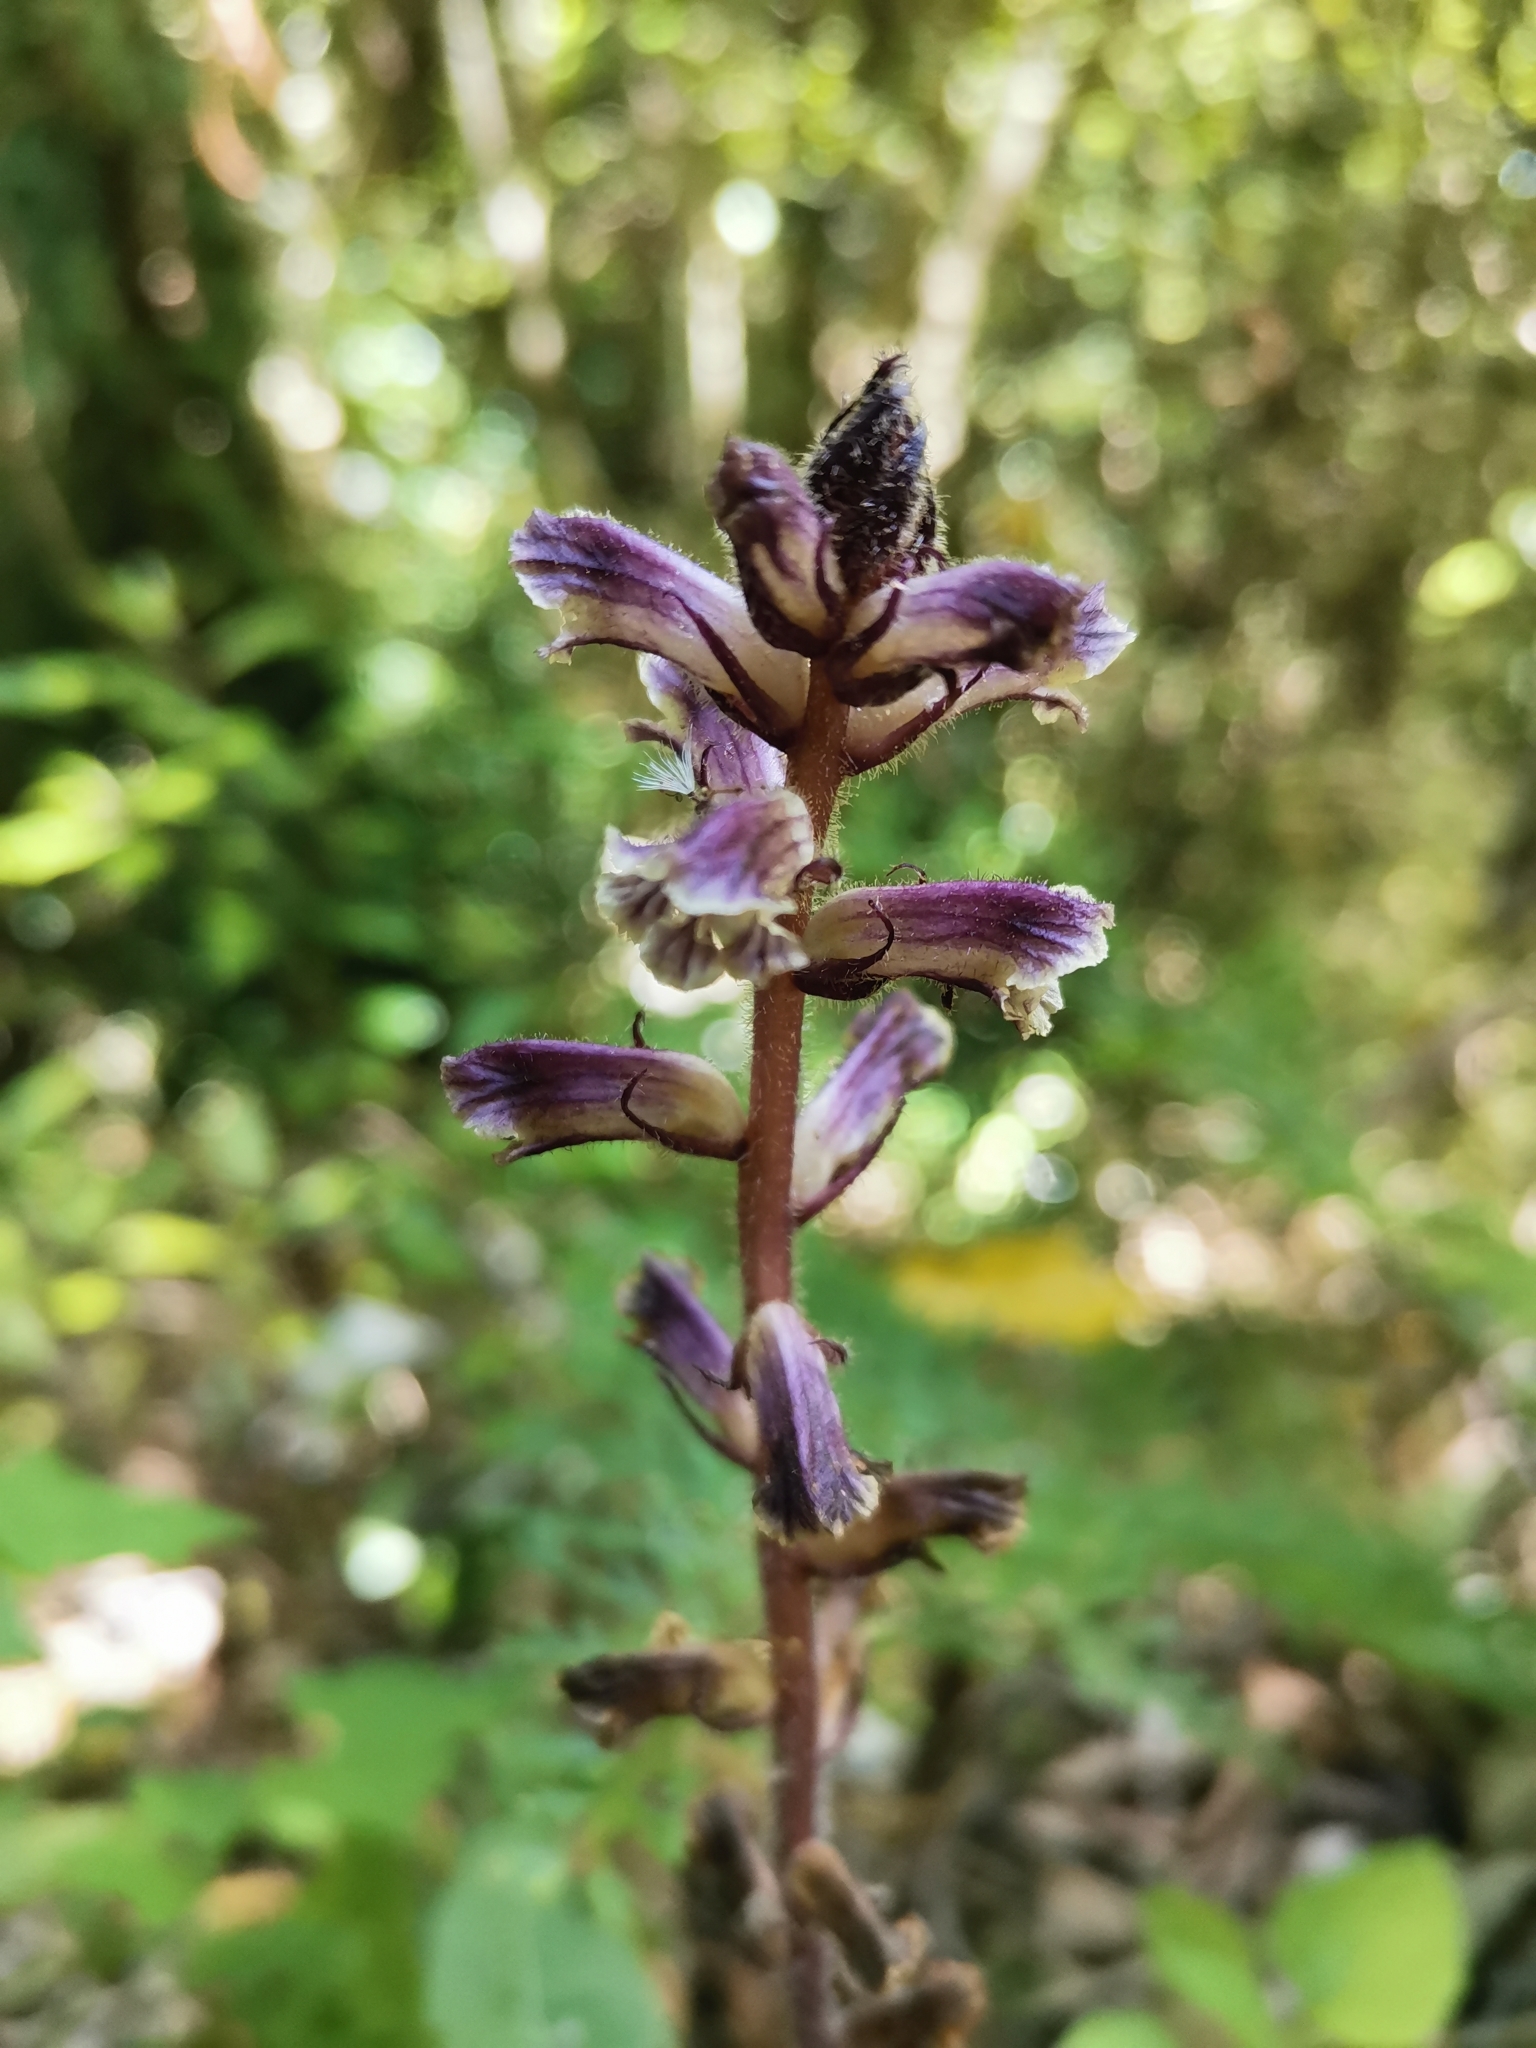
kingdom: Plantae
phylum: Tracheophyta
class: Magnoliopsida
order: Lamiales
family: Orobanchaceae
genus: Orobanche
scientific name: Orobanche minor
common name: Common broomrape
